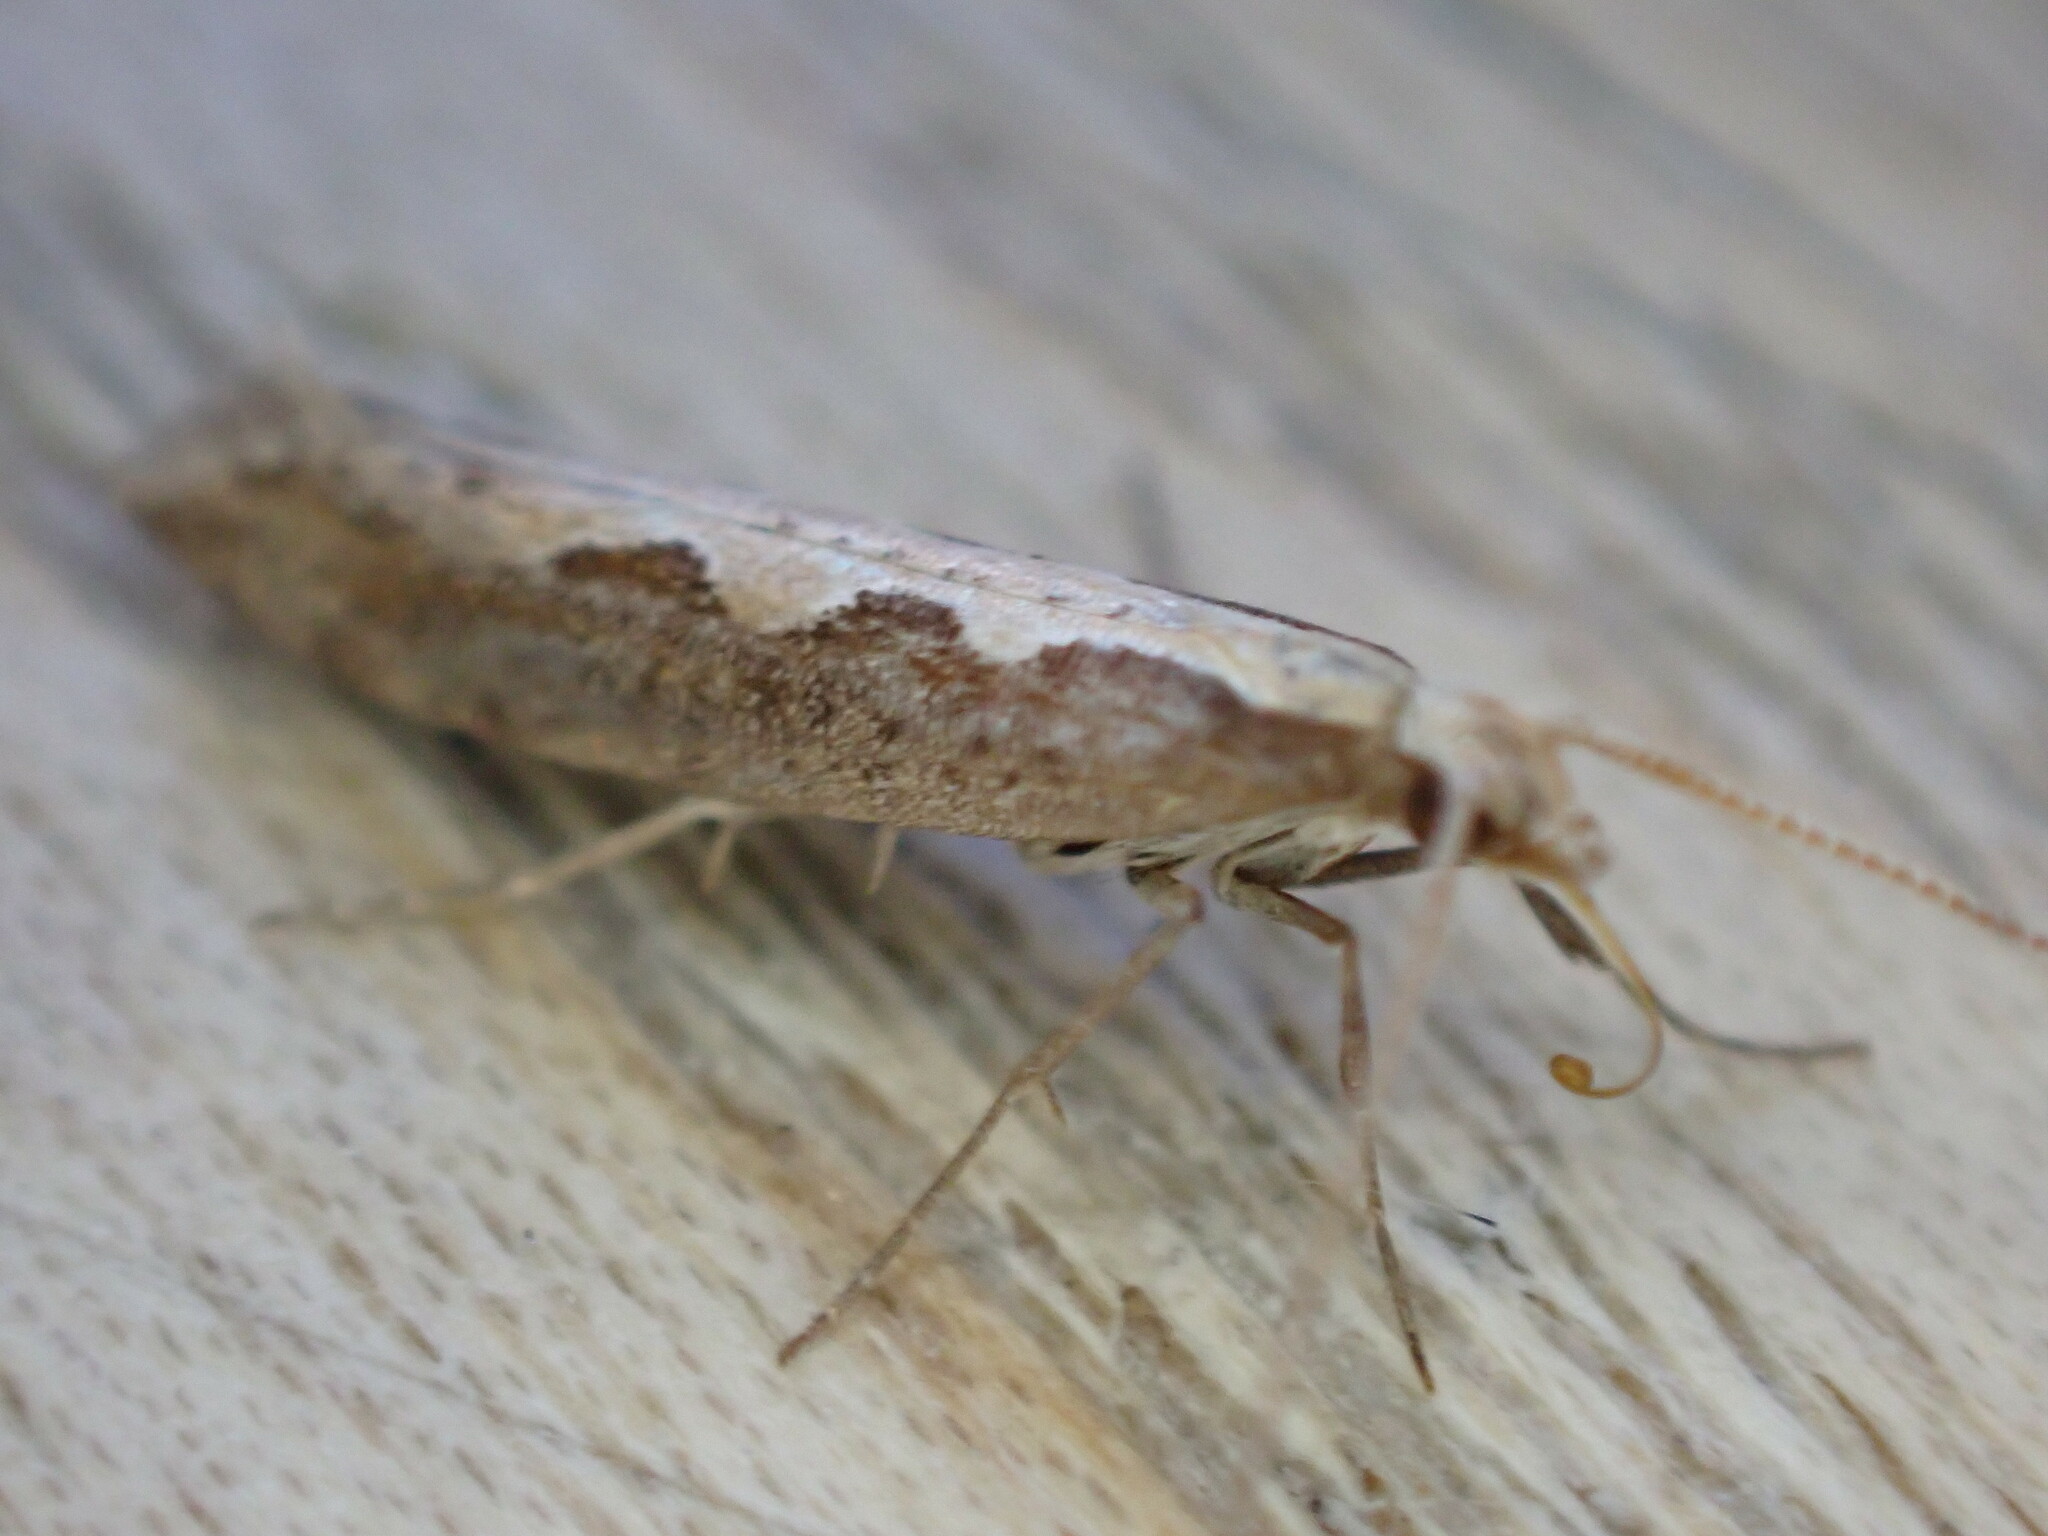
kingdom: Animalia
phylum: Arthropoda
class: Insecta
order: Lepidoptera
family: Plutellidae
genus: Plutella
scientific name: Plutella xylostella
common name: Diamond-back moth
